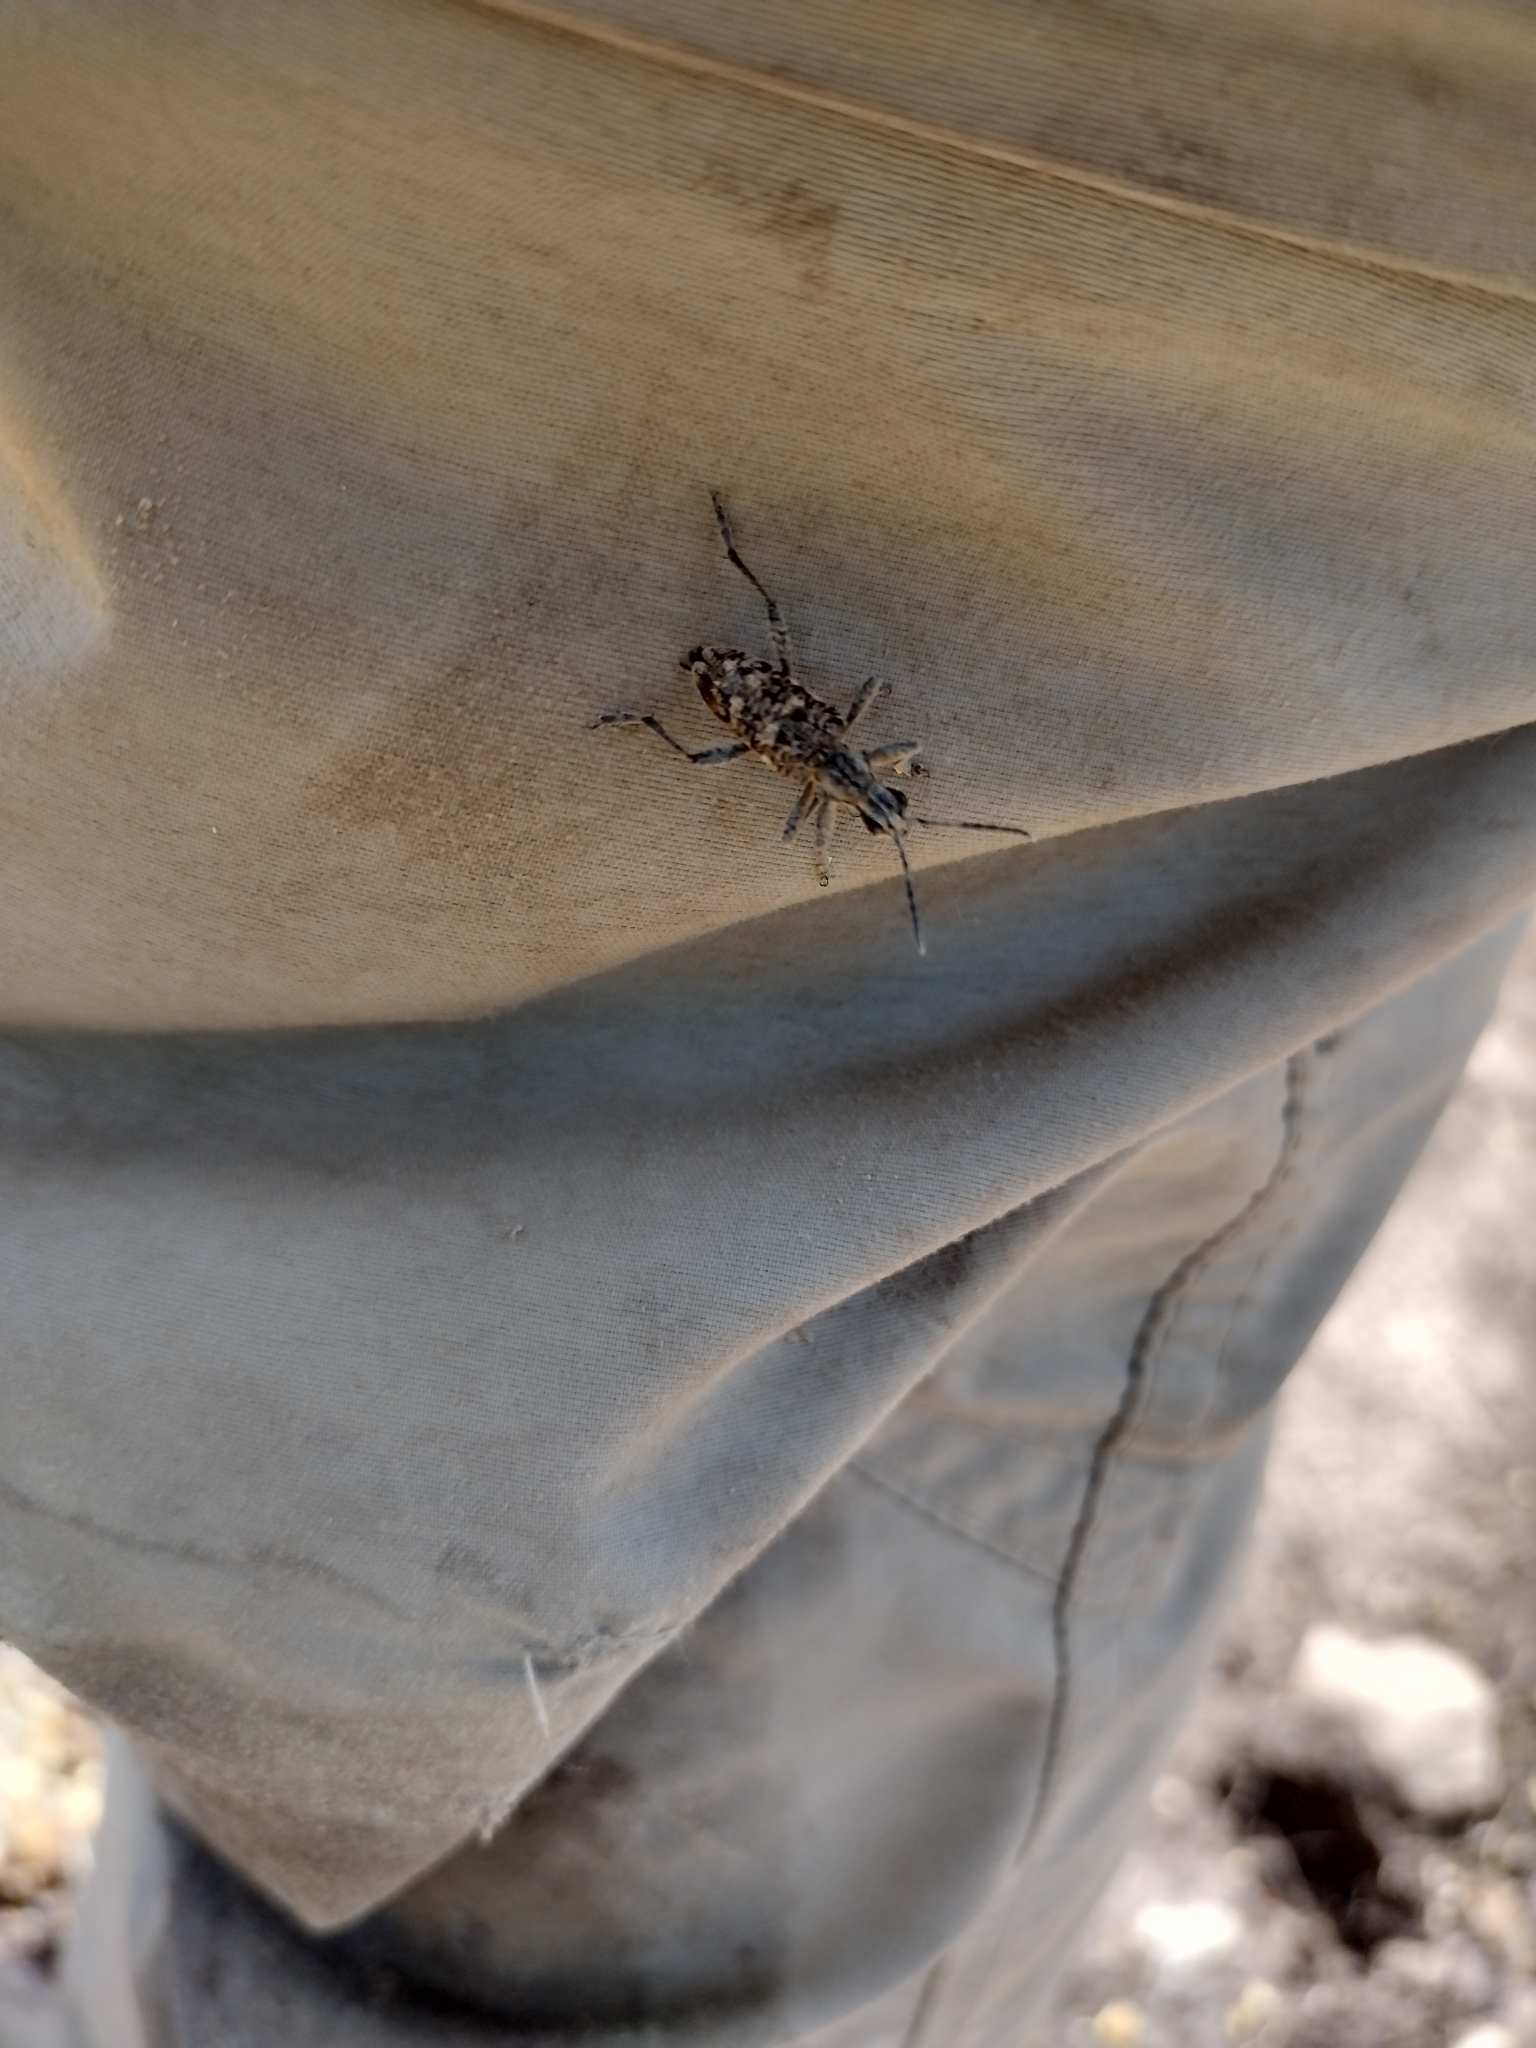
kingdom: Animalia
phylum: Arthropoda
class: Insecta
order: Coleoptera
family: Cerambycidae
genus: Rhagium
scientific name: Rhagium inquisitor
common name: Ribbed pine borer
